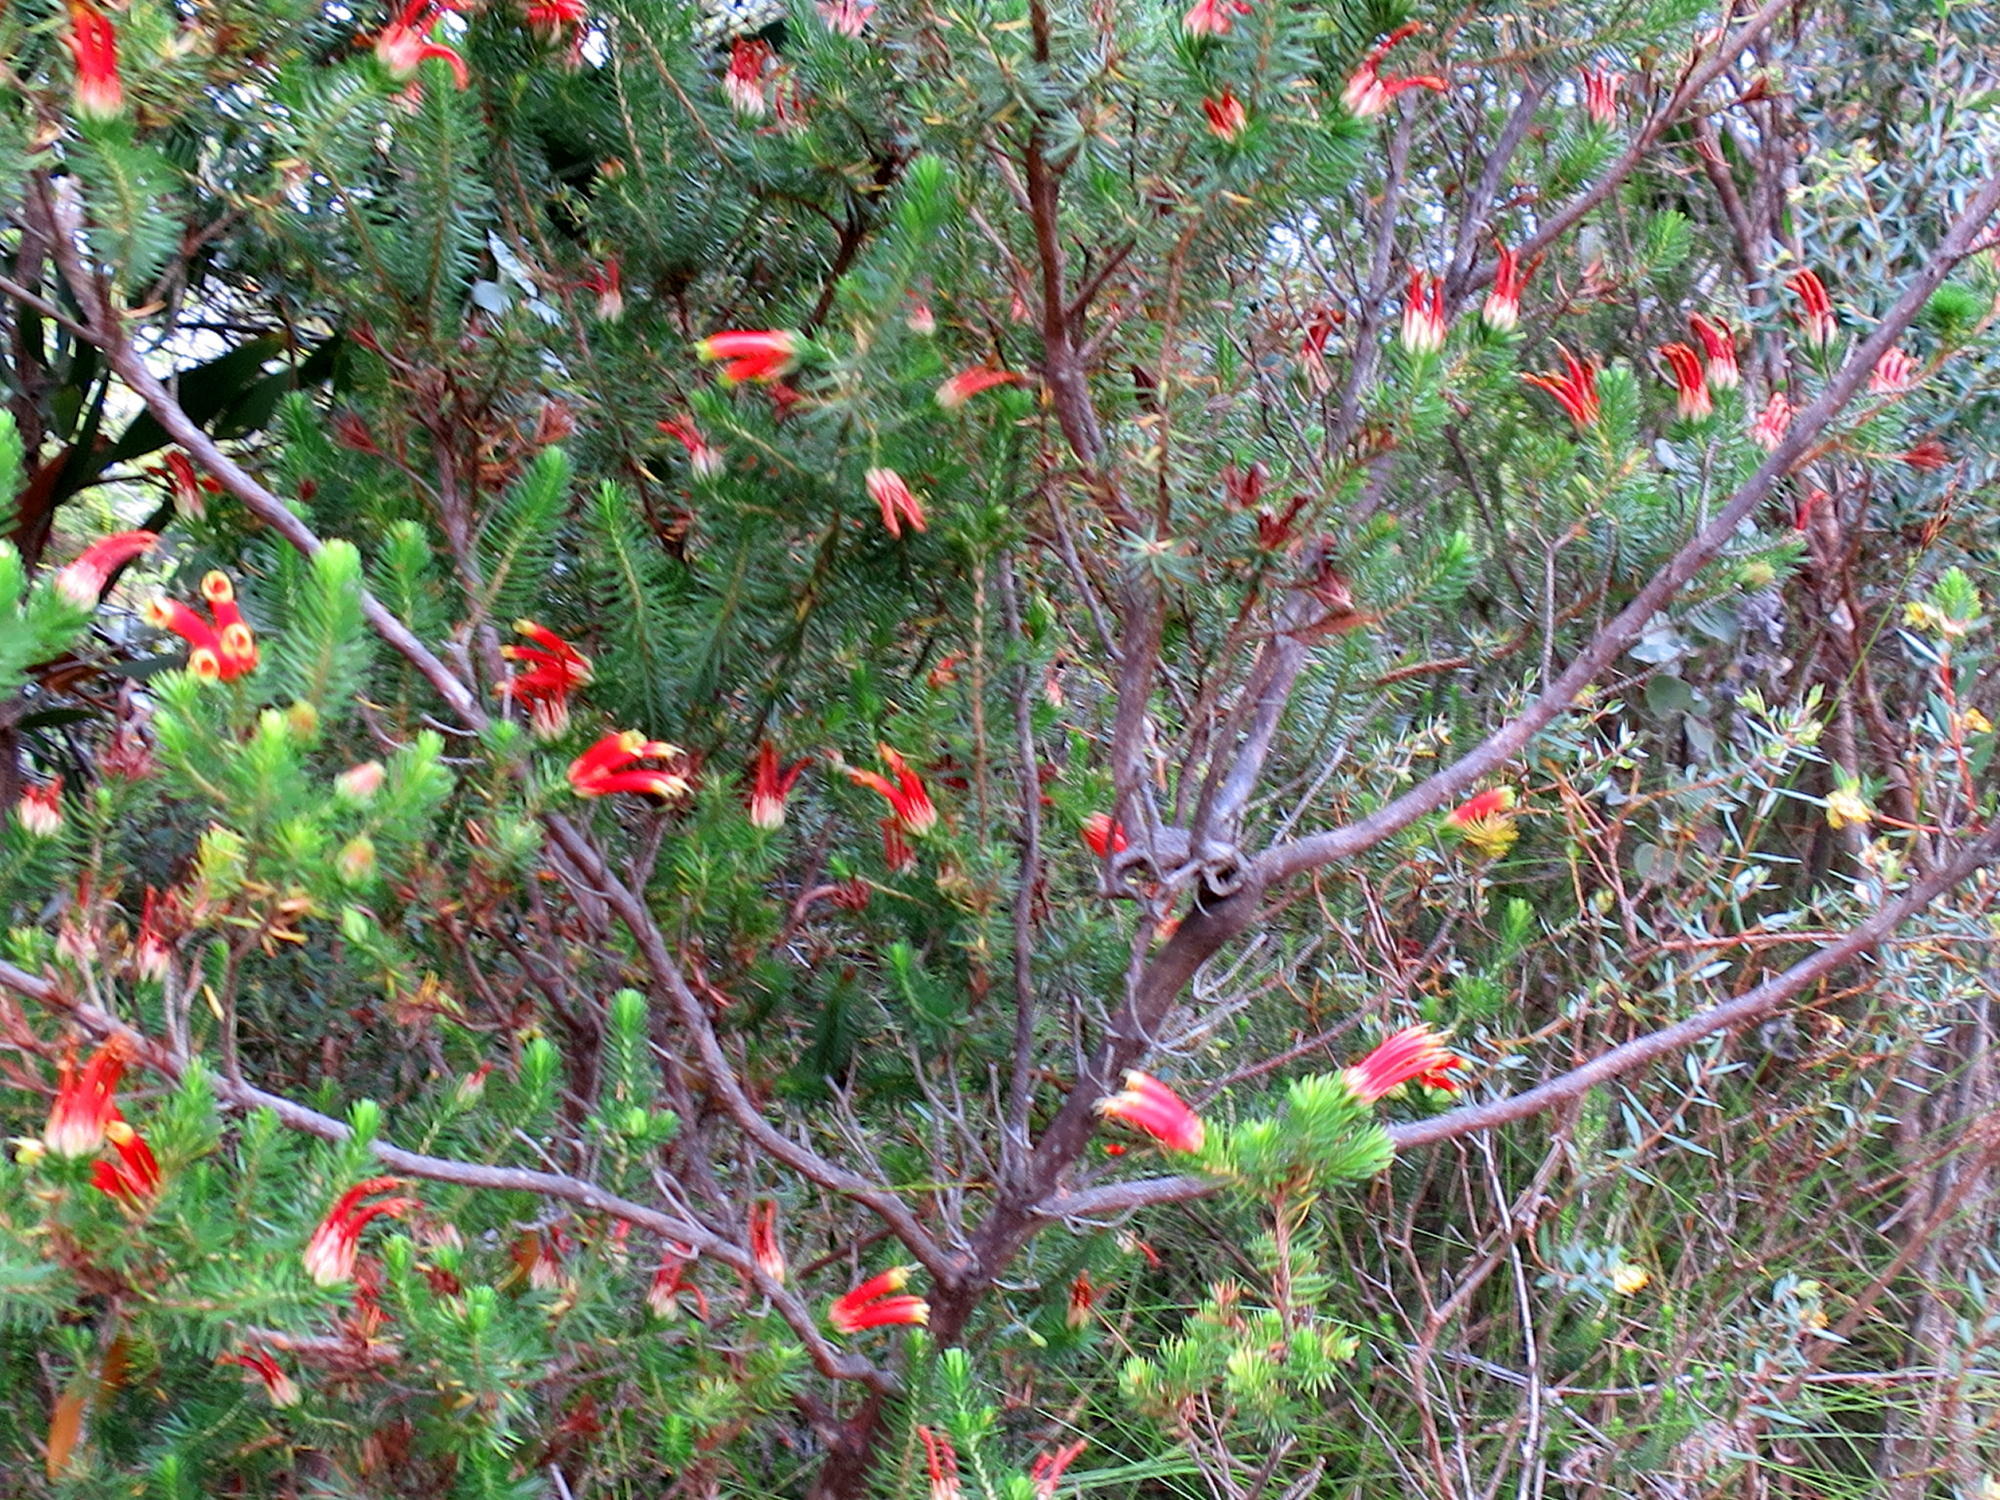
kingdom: Plantae
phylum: Tracheophyta
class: Magnoliopsida
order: Ericales
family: Ericaceae
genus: Erica
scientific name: Erica unicolor
